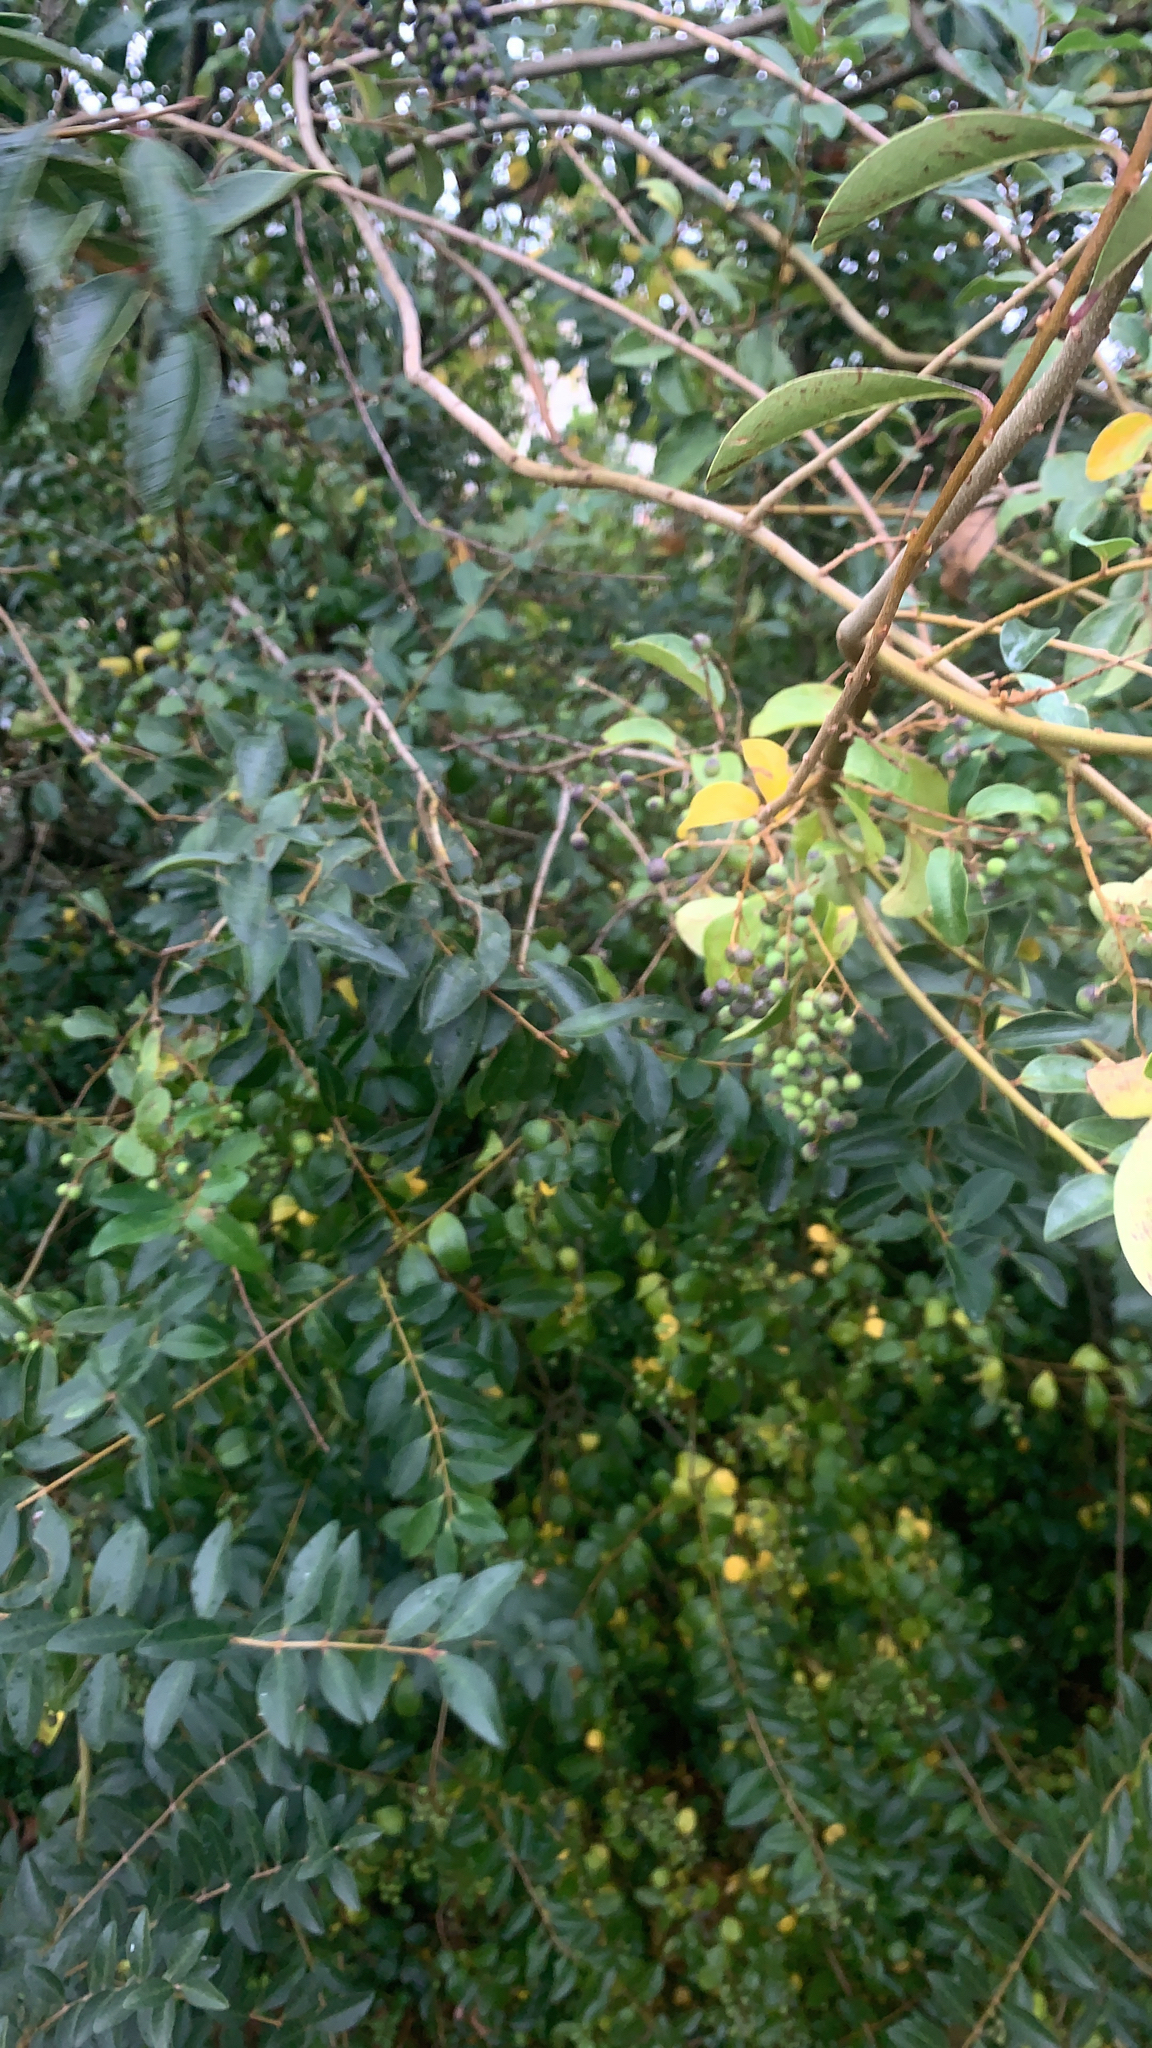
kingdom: Plantae
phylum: Tracheophyta
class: Magnoliopsida
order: Lamiales
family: Oleaceae
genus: Ligustrum
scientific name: Ligustrum sinense
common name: Chinese privet
